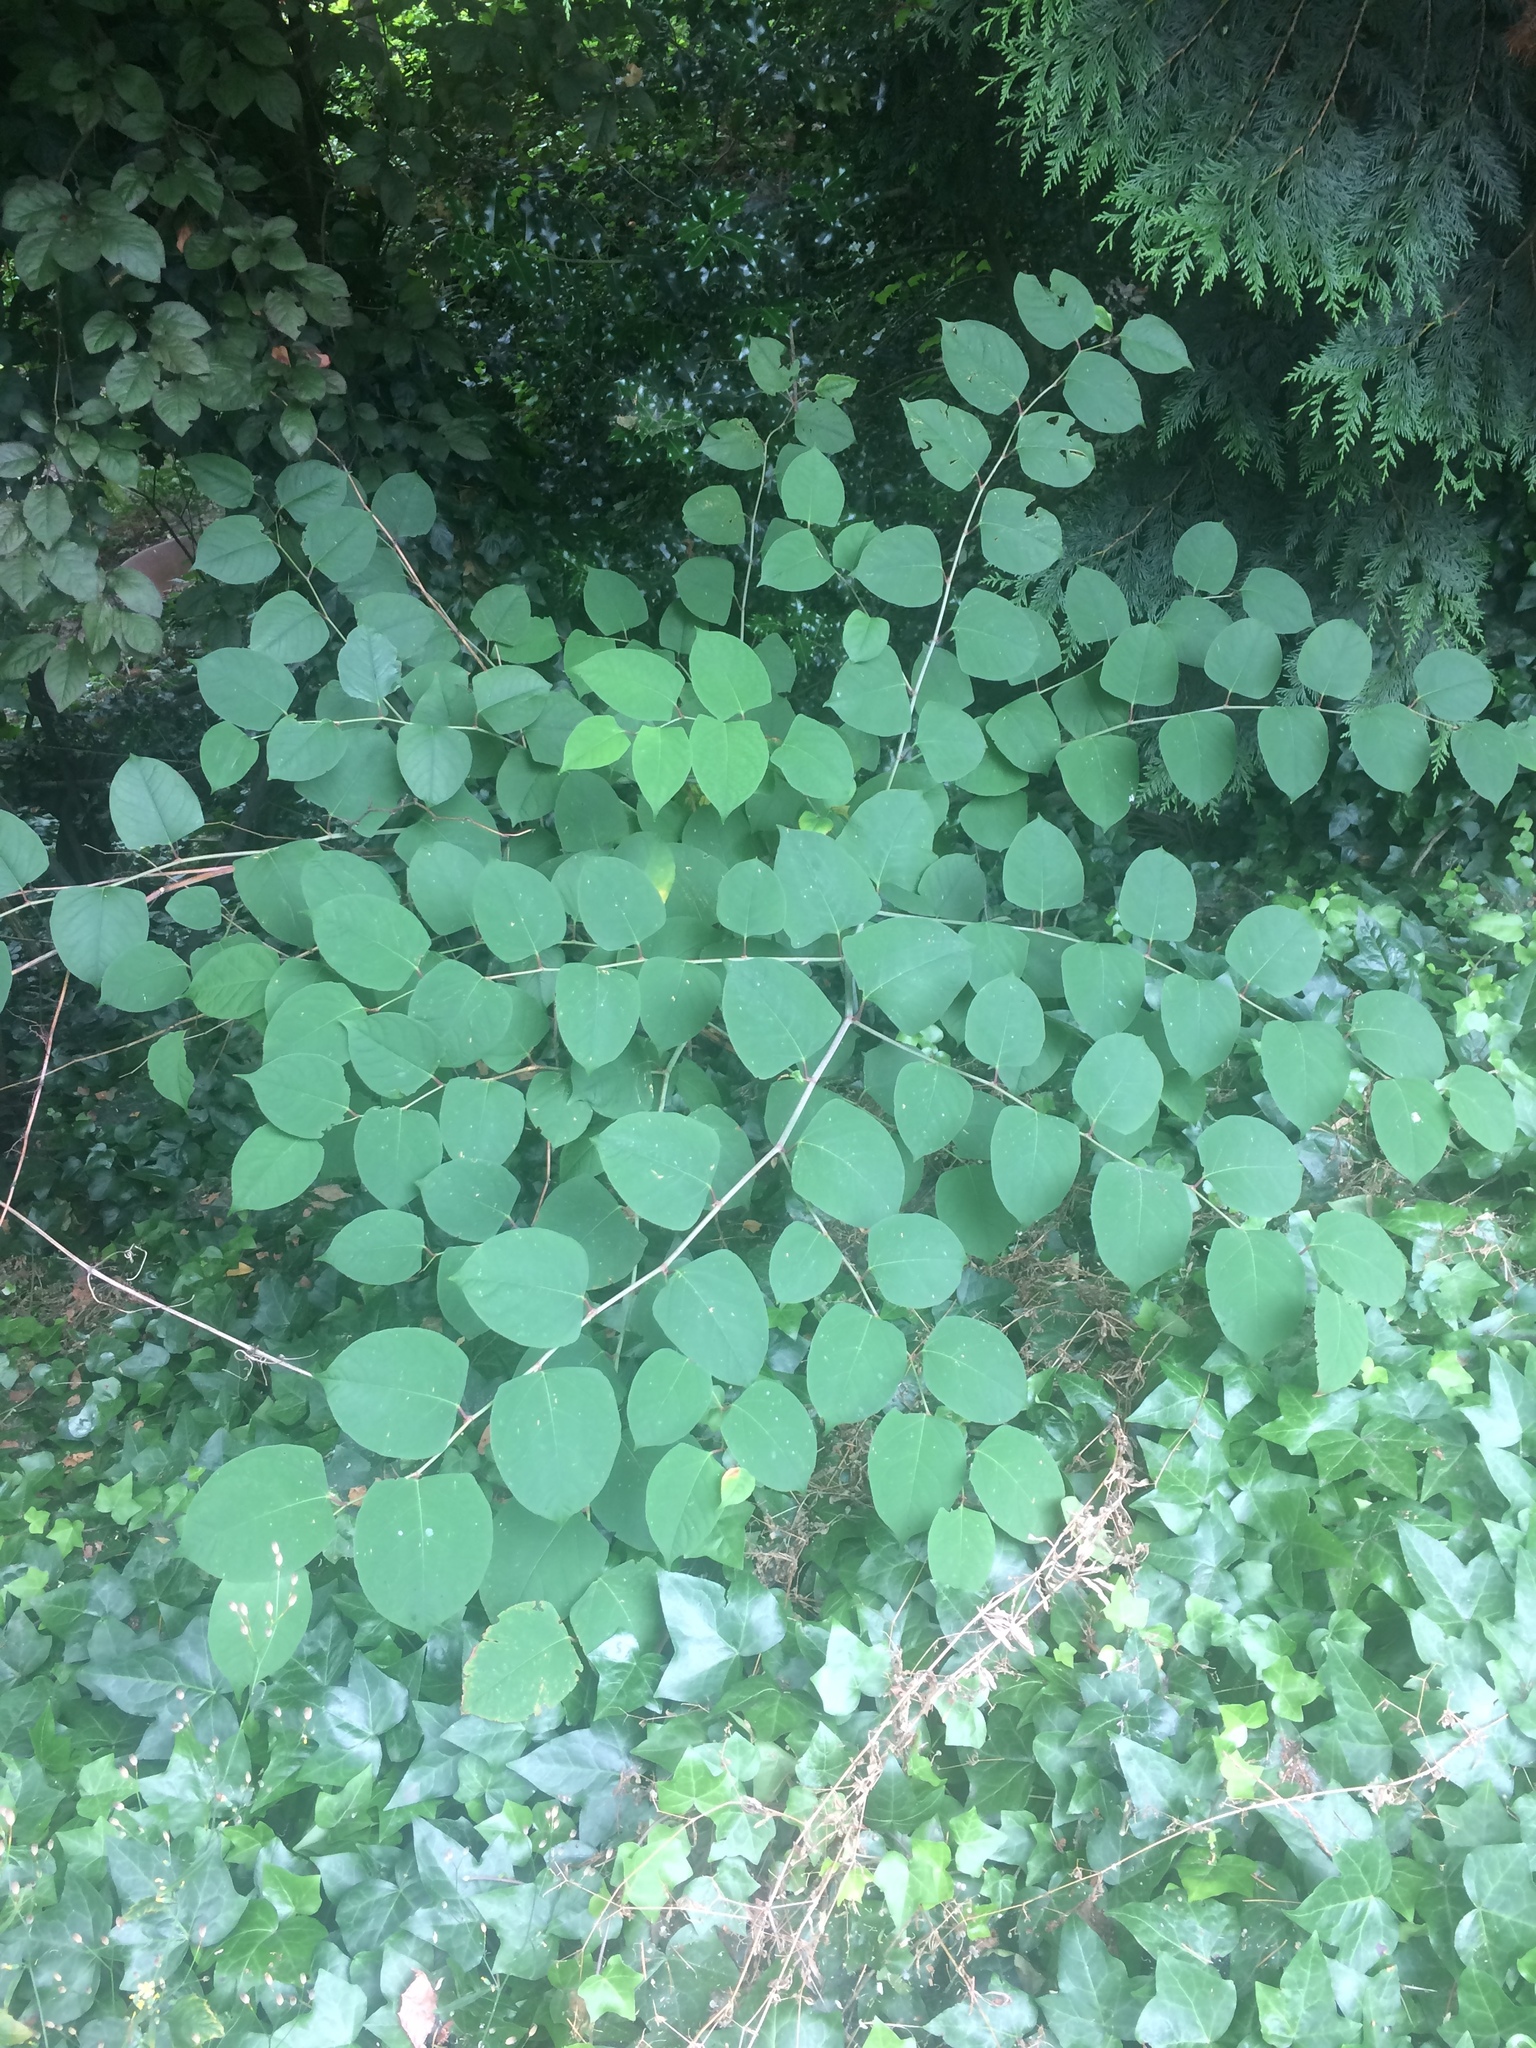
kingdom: Plantae
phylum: Tracheophyta
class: Magnoliopsida
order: Caryophyllales
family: Polygonaceae
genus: Reynoutria
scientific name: Reynoutria japonica
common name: Japanese knotweed
